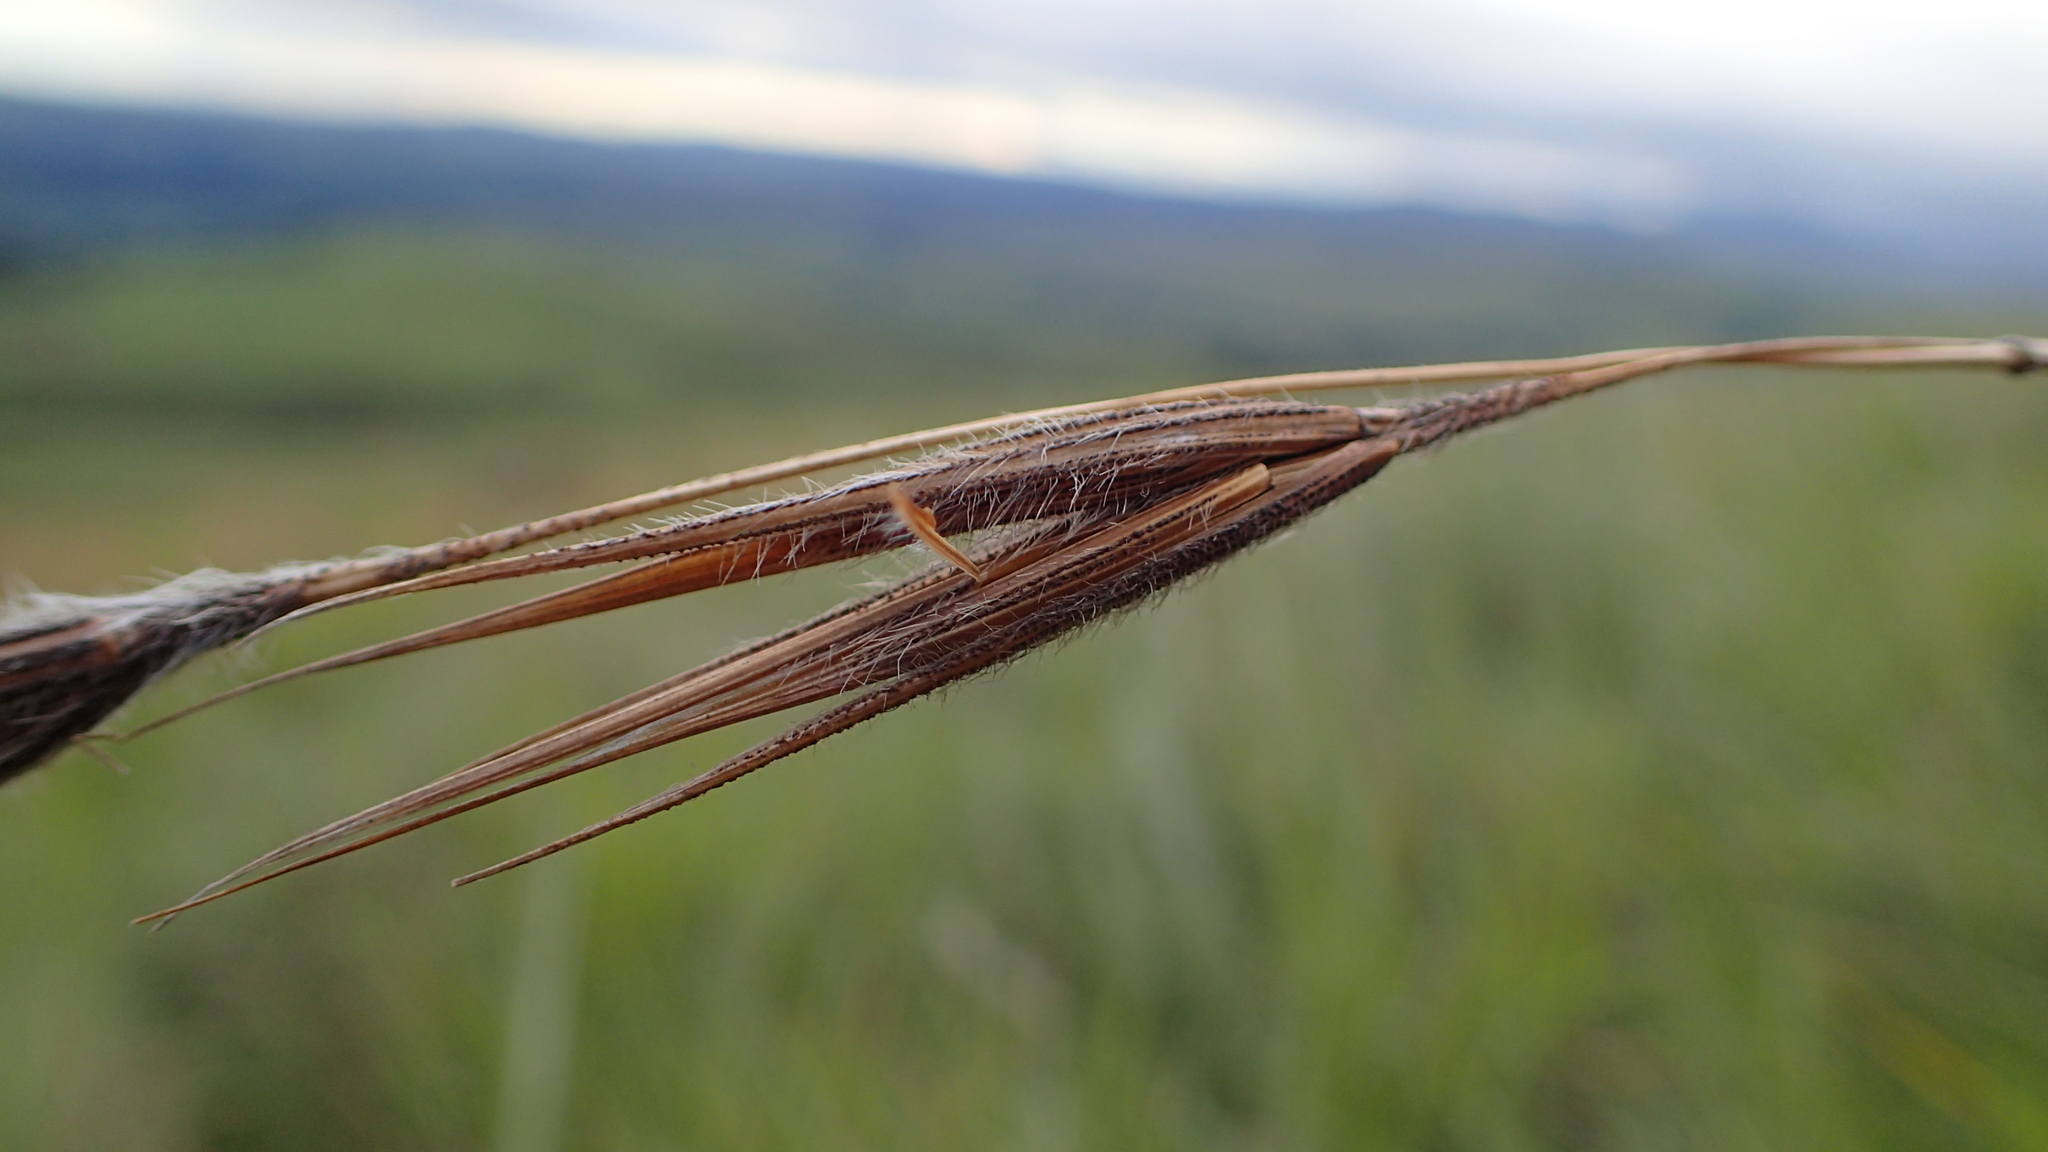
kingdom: Plantae
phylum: Tracheophyta
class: Liliopsida
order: Poales
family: Poaceae
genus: Tristachya
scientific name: Tristachya leucothrix
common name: Trident grass
